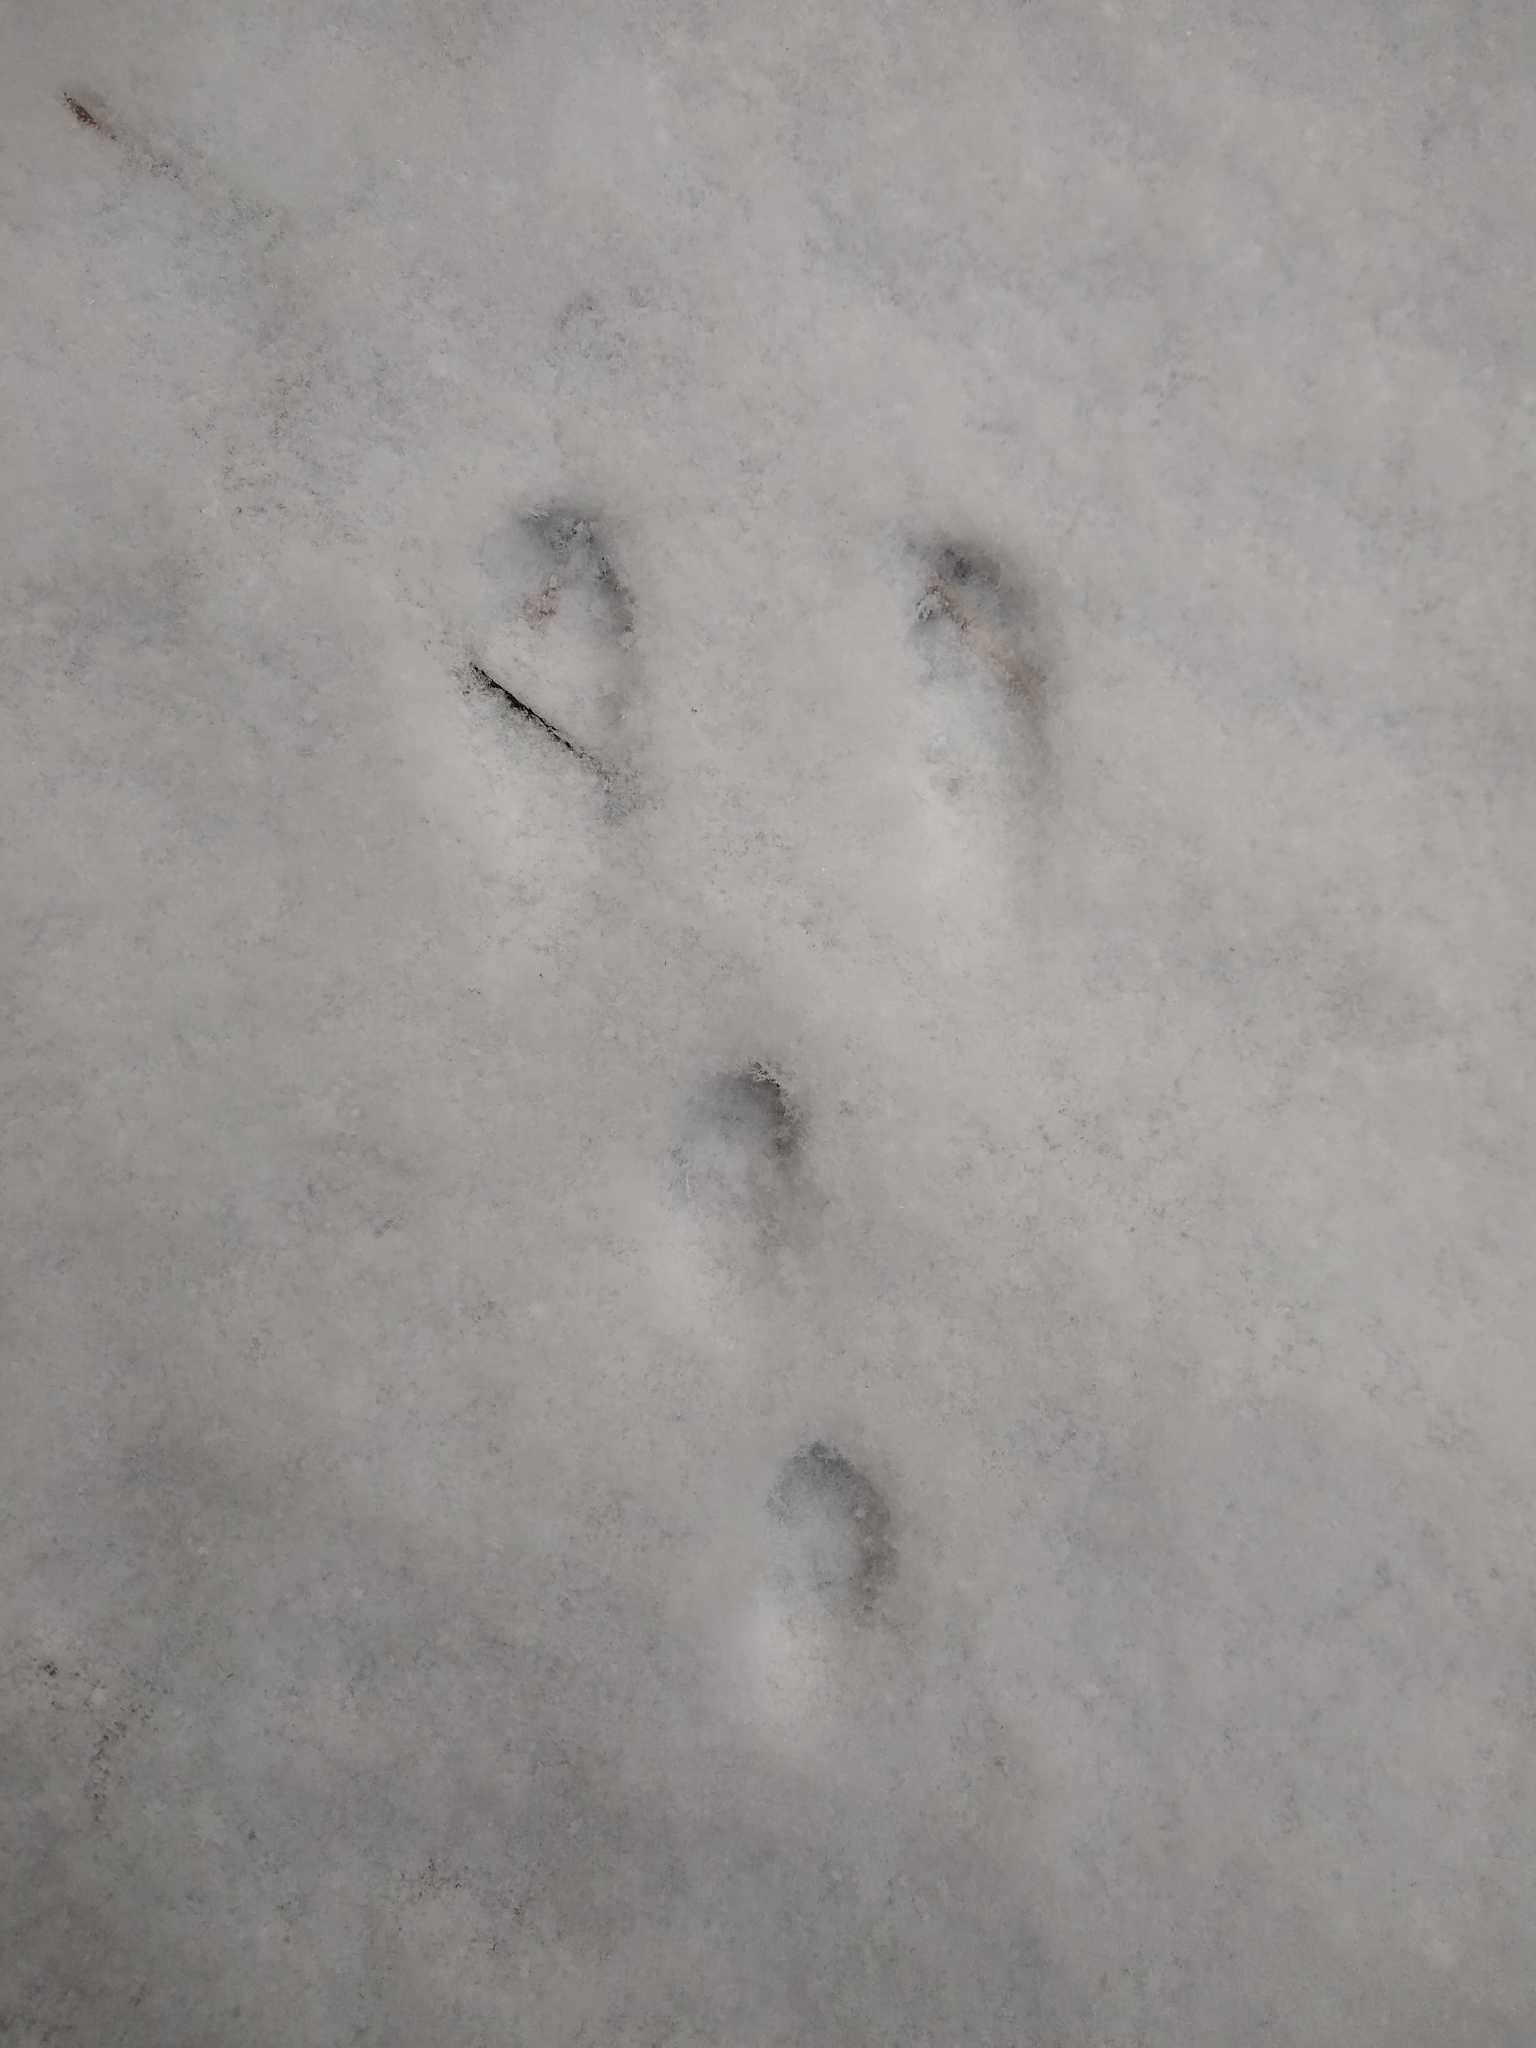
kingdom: Animalia
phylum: Chordata
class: Mammalia
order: Lagomorpha
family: Leporidae
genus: Sylvilagus
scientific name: Sylvilagus floridanus
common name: Eastern cottontail
